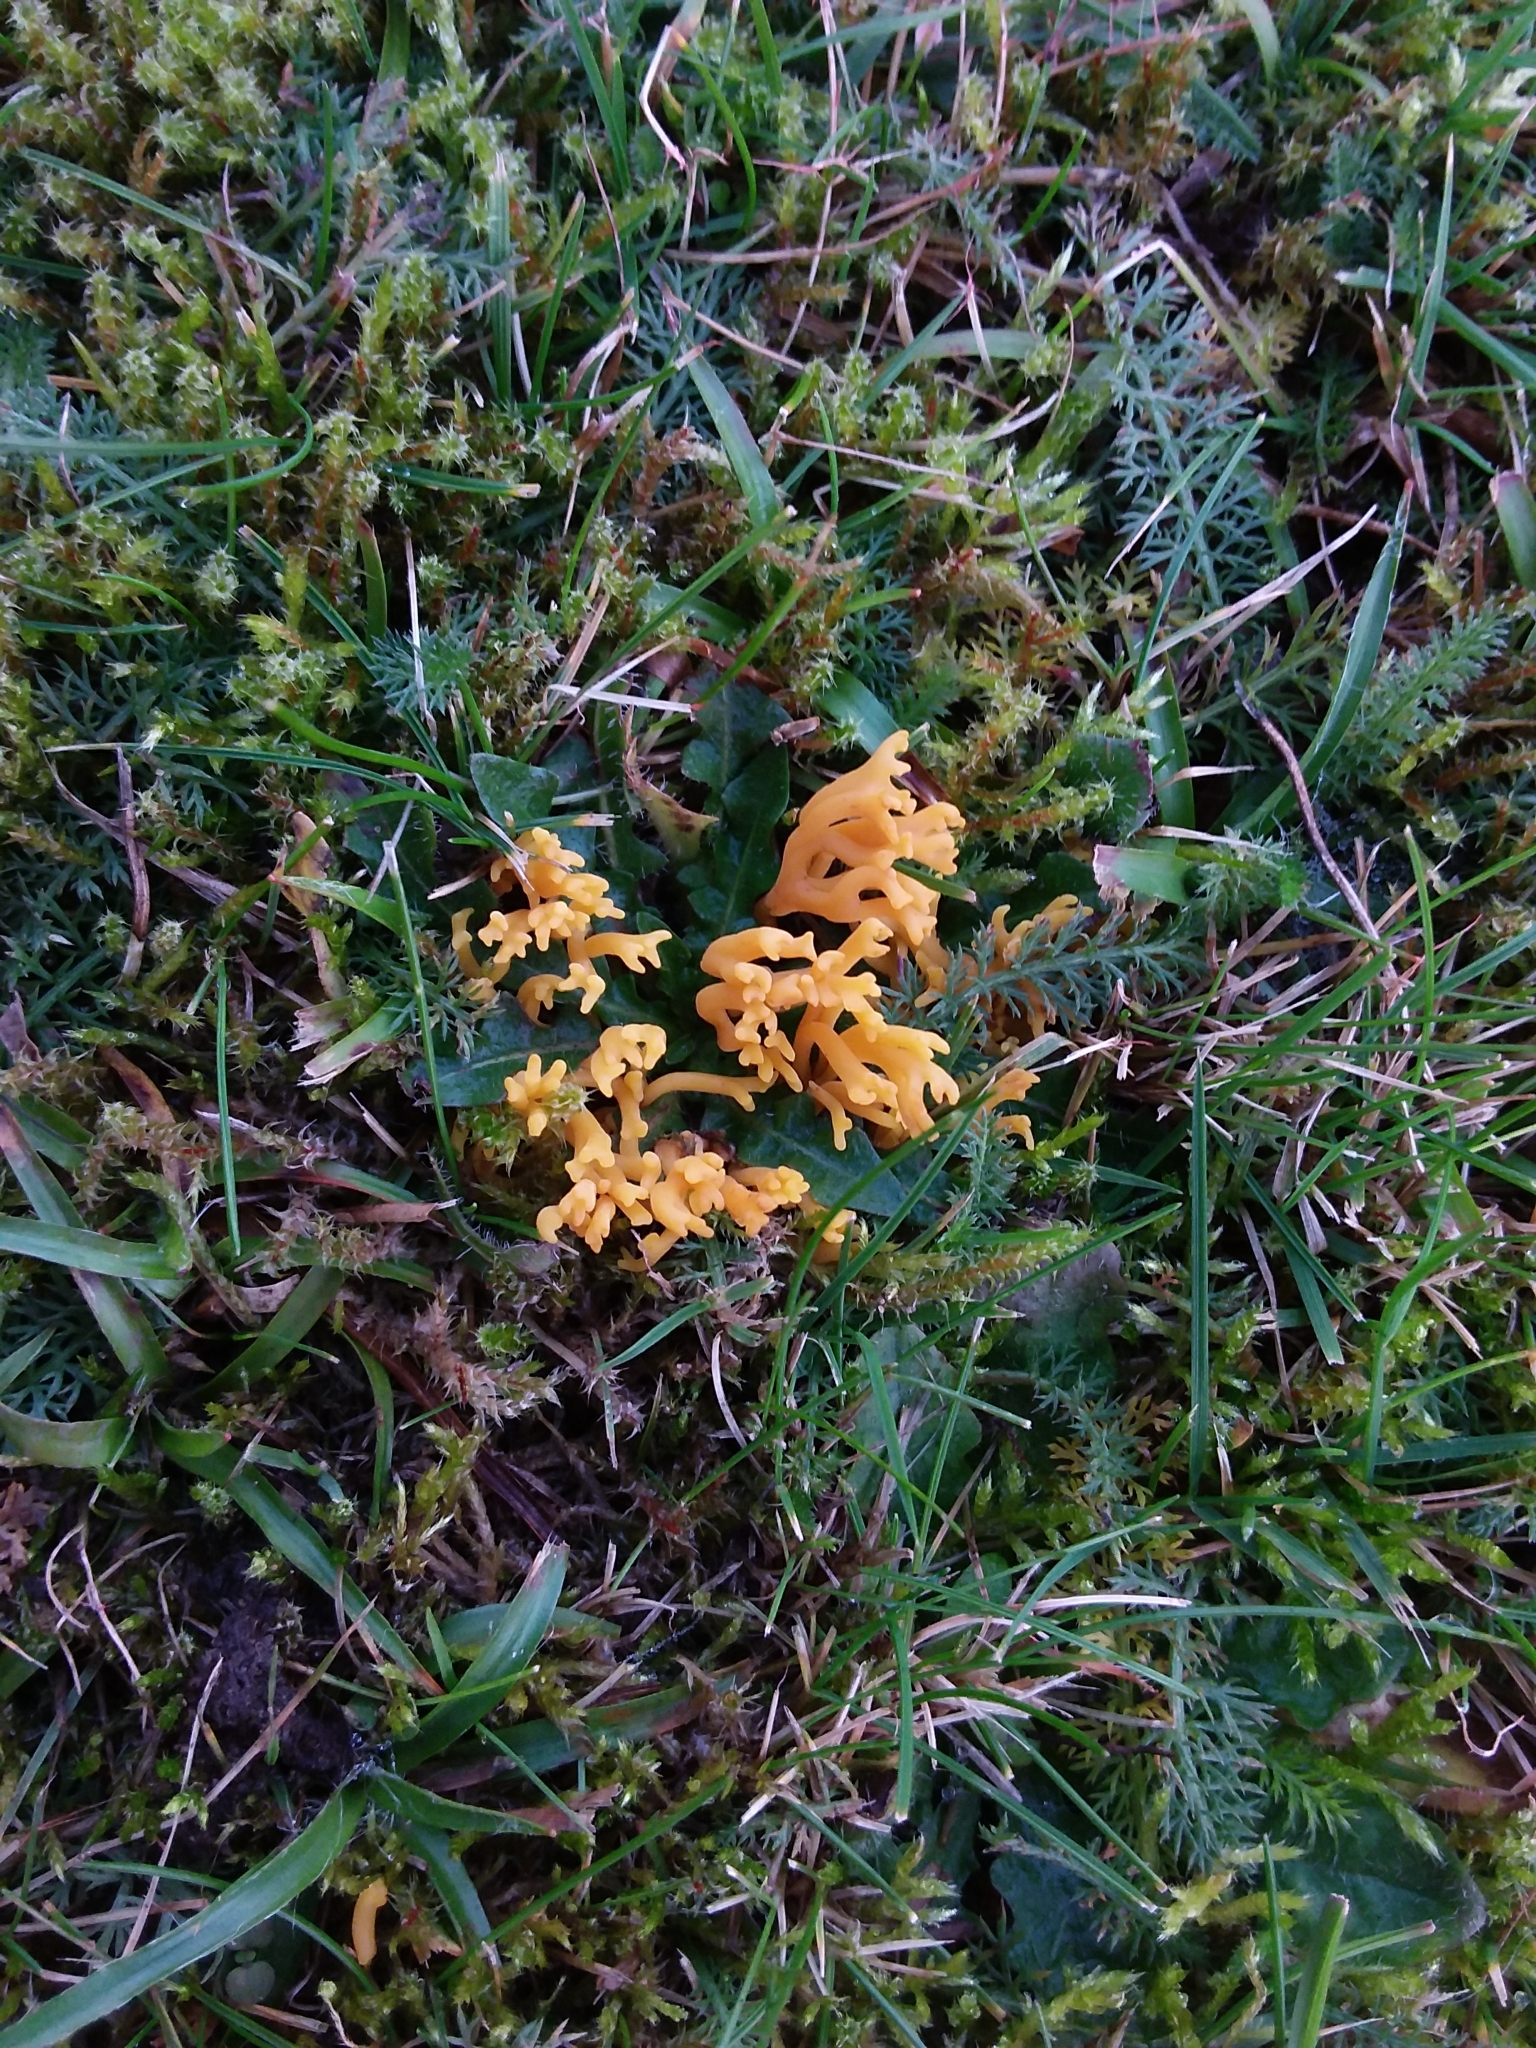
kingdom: Fungi
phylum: Basidiomycota
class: Agaricomycetes
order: Agaricales
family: Clavariaceae
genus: Clavulinopsis
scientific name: Clavulinopsis corniculata
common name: Meadow coral
